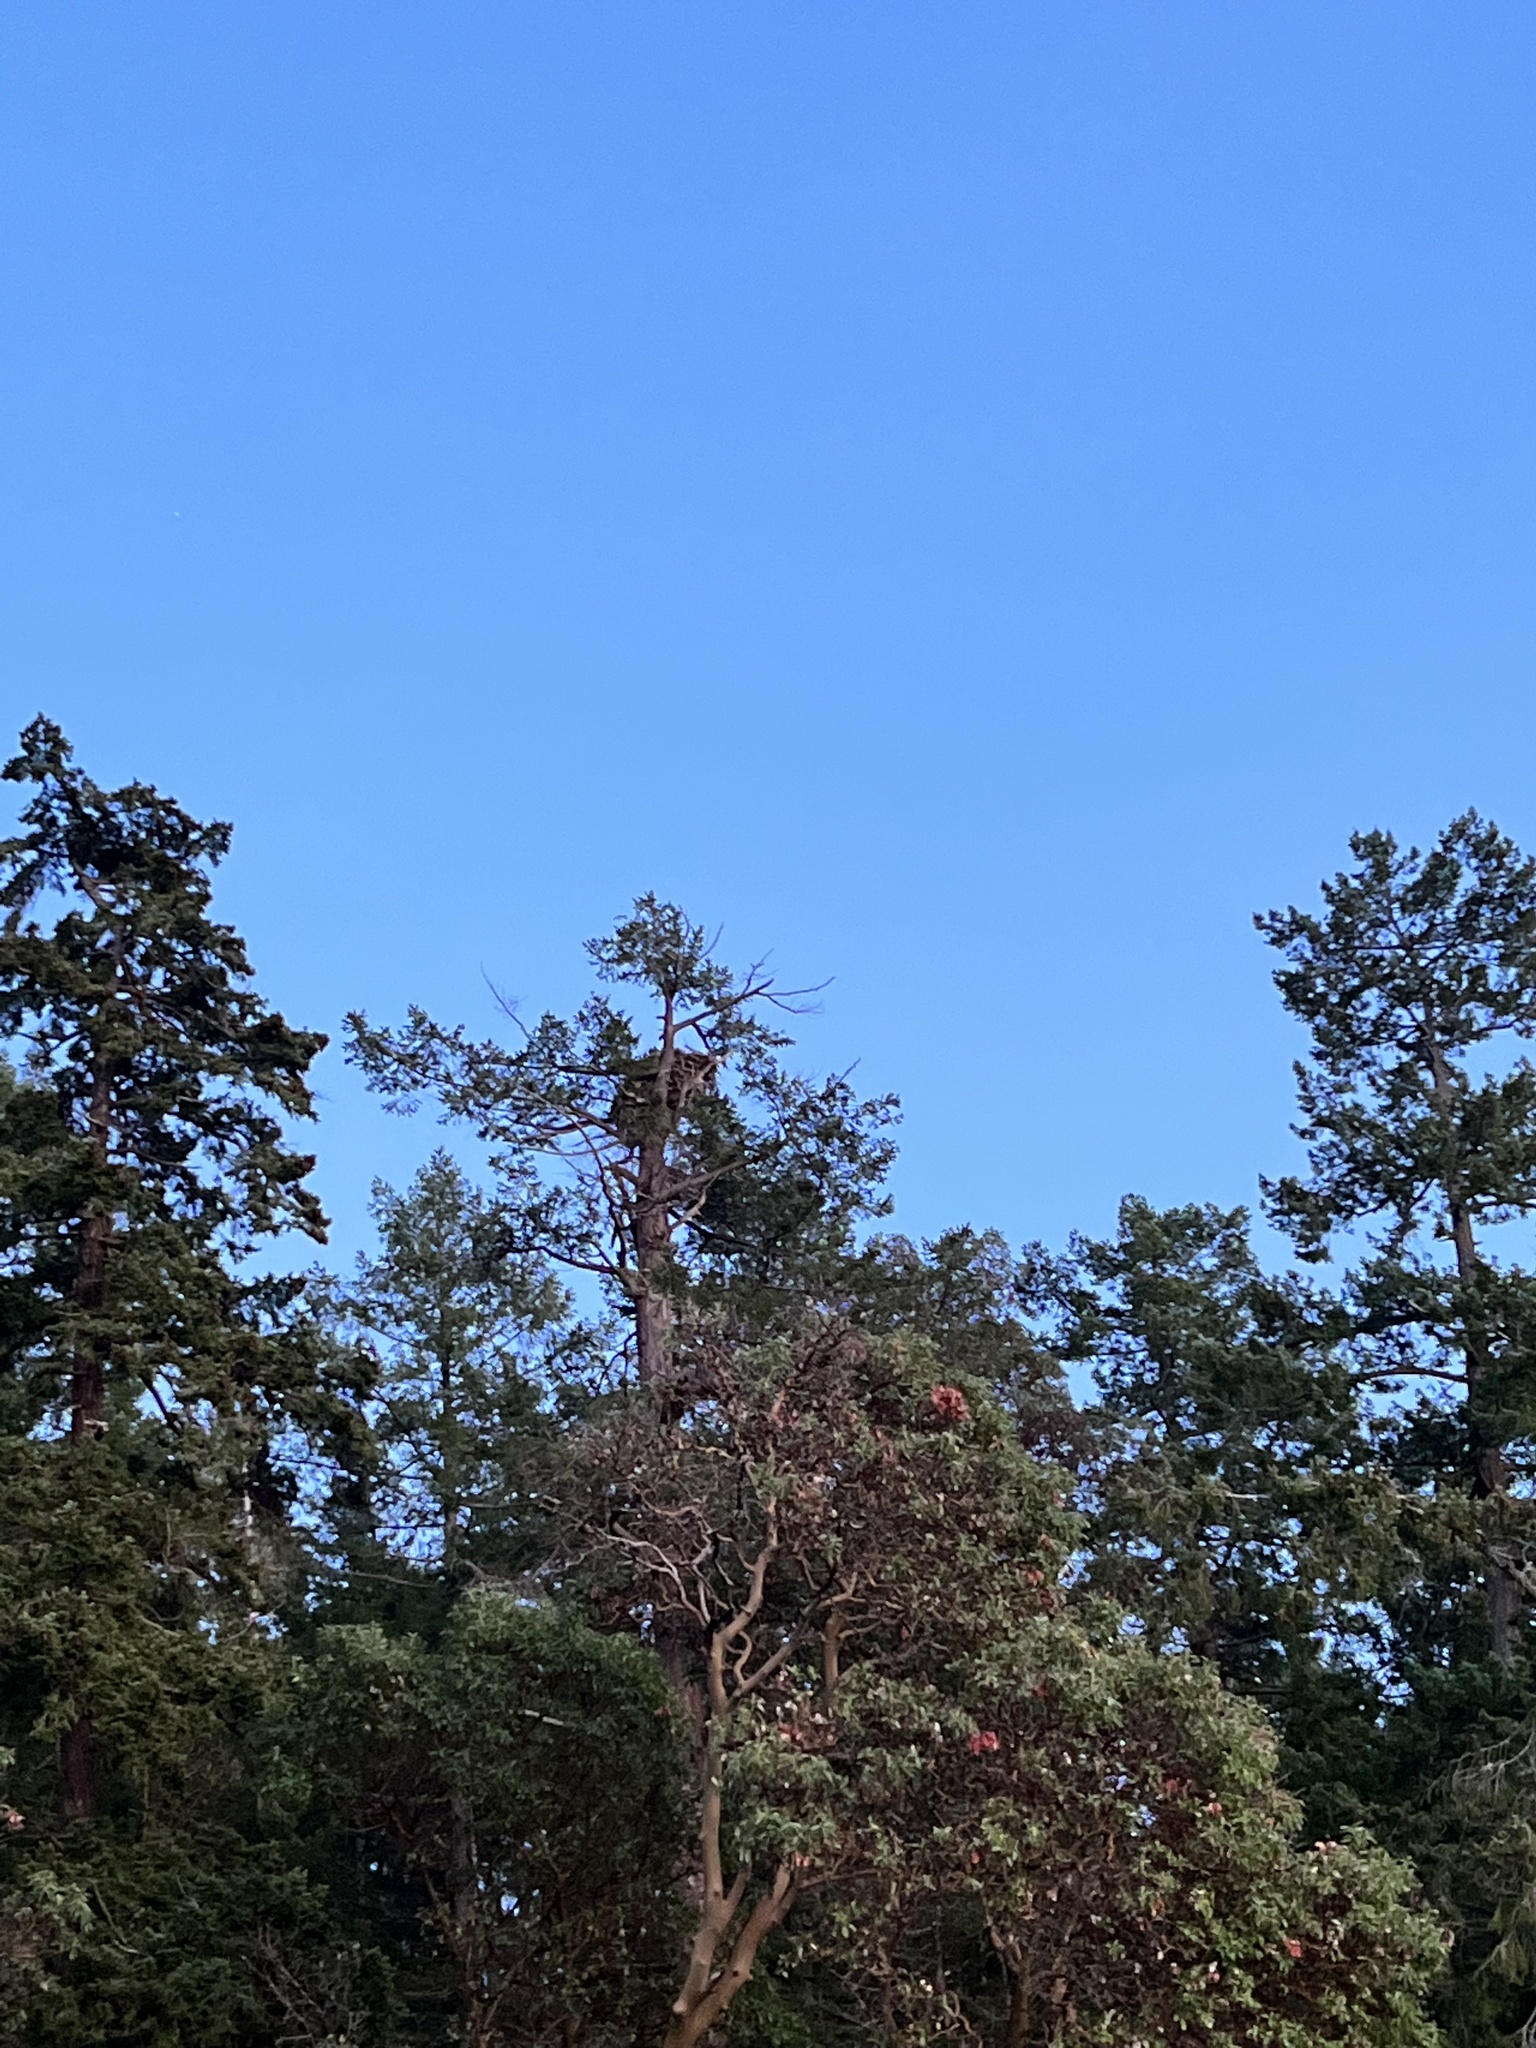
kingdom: Animalia
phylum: Chordata
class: Aves
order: Accipitriformes
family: Accipitridae
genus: Haliaeetus
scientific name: Haliaeetus leucocephalus
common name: Bald eagle
